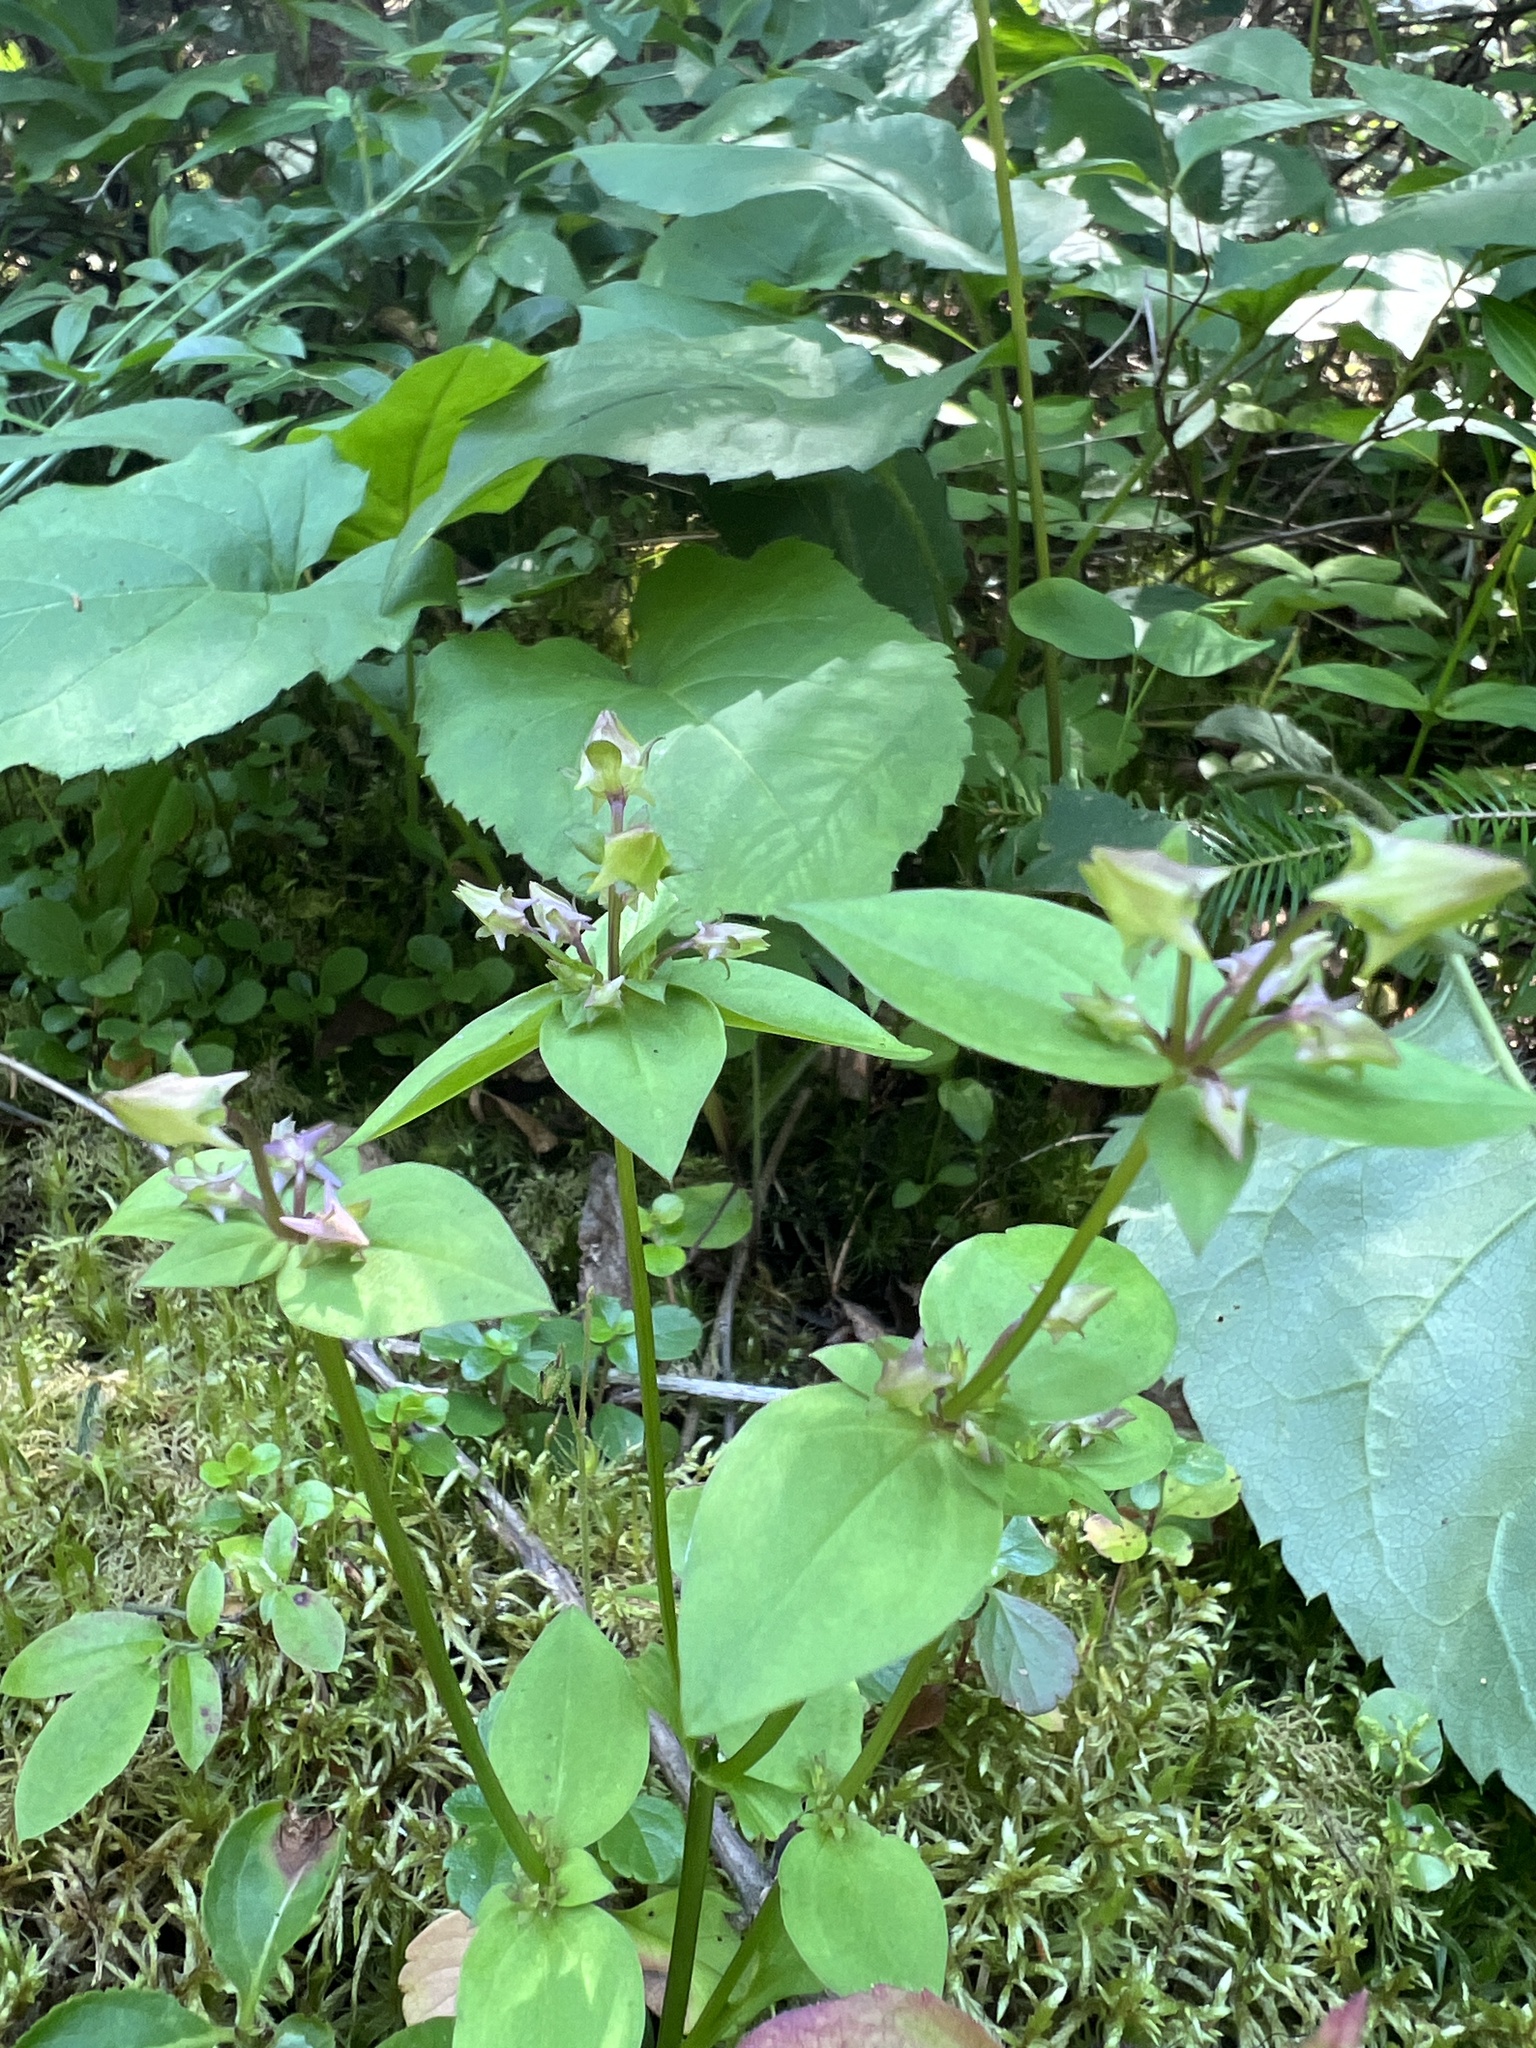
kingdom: Plantae
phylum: Tracheophyta
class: Magnoliopsida
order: Gentianales
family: Gentianaceae
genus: Halenia
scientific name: Halenia deflexa
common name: American spurred gentian
